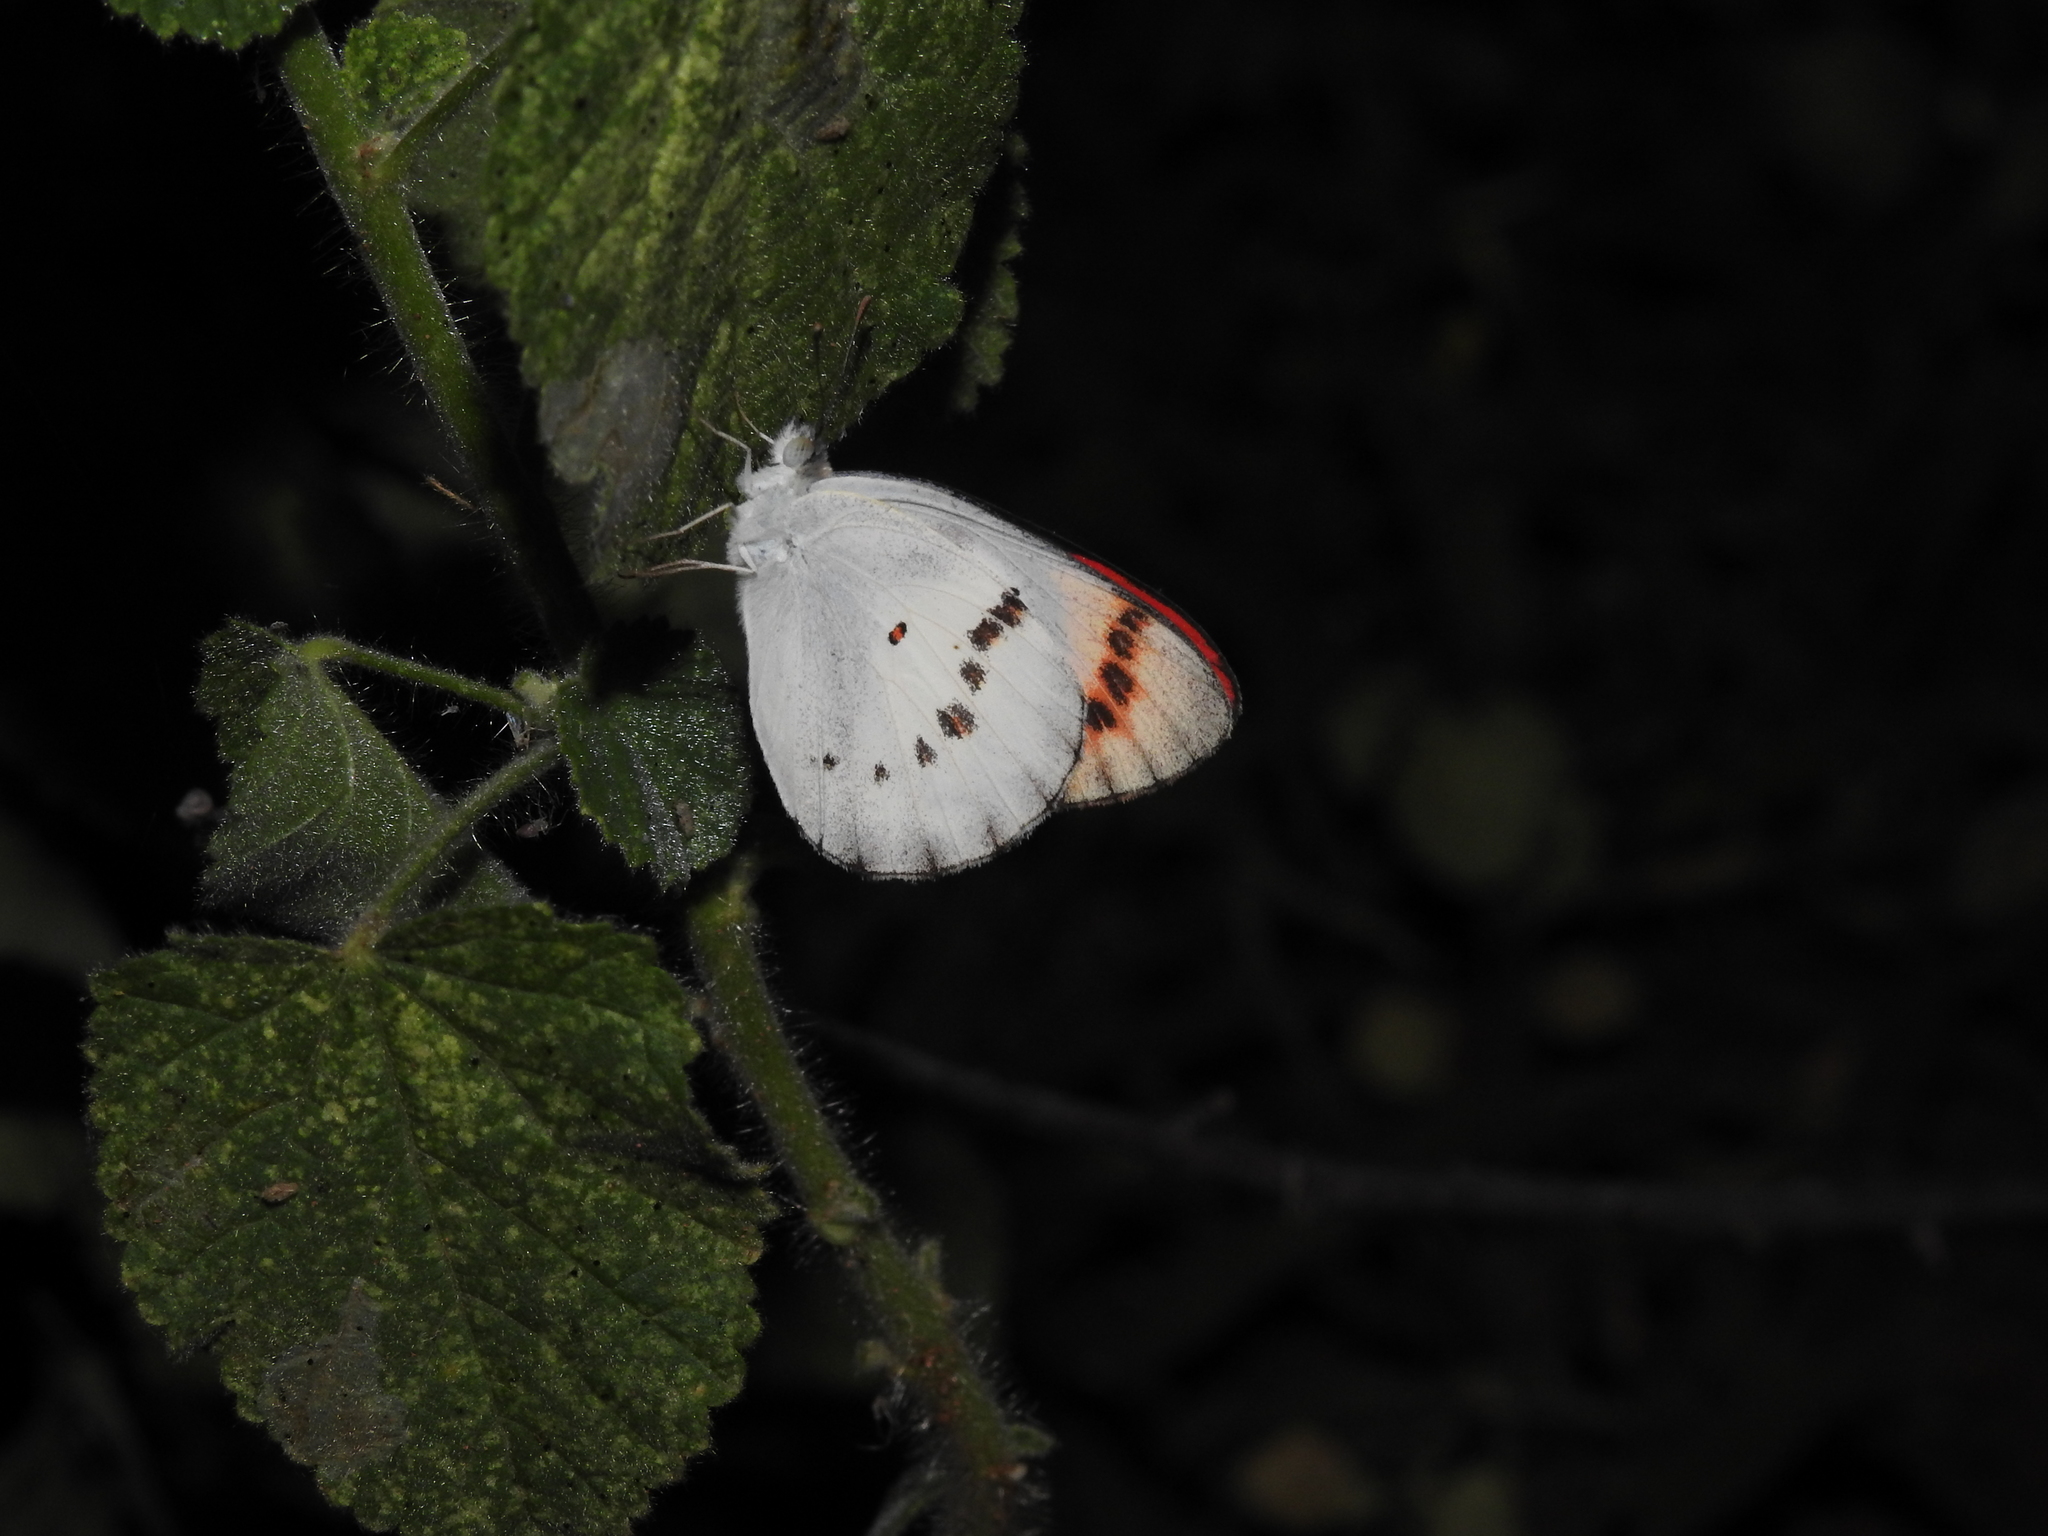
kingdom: Animalia
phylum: Arthropoda
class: Insecta
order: Lepidoptera
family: Pieridae
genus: Colotis
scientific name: Colotis danae
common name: Crimson tip
